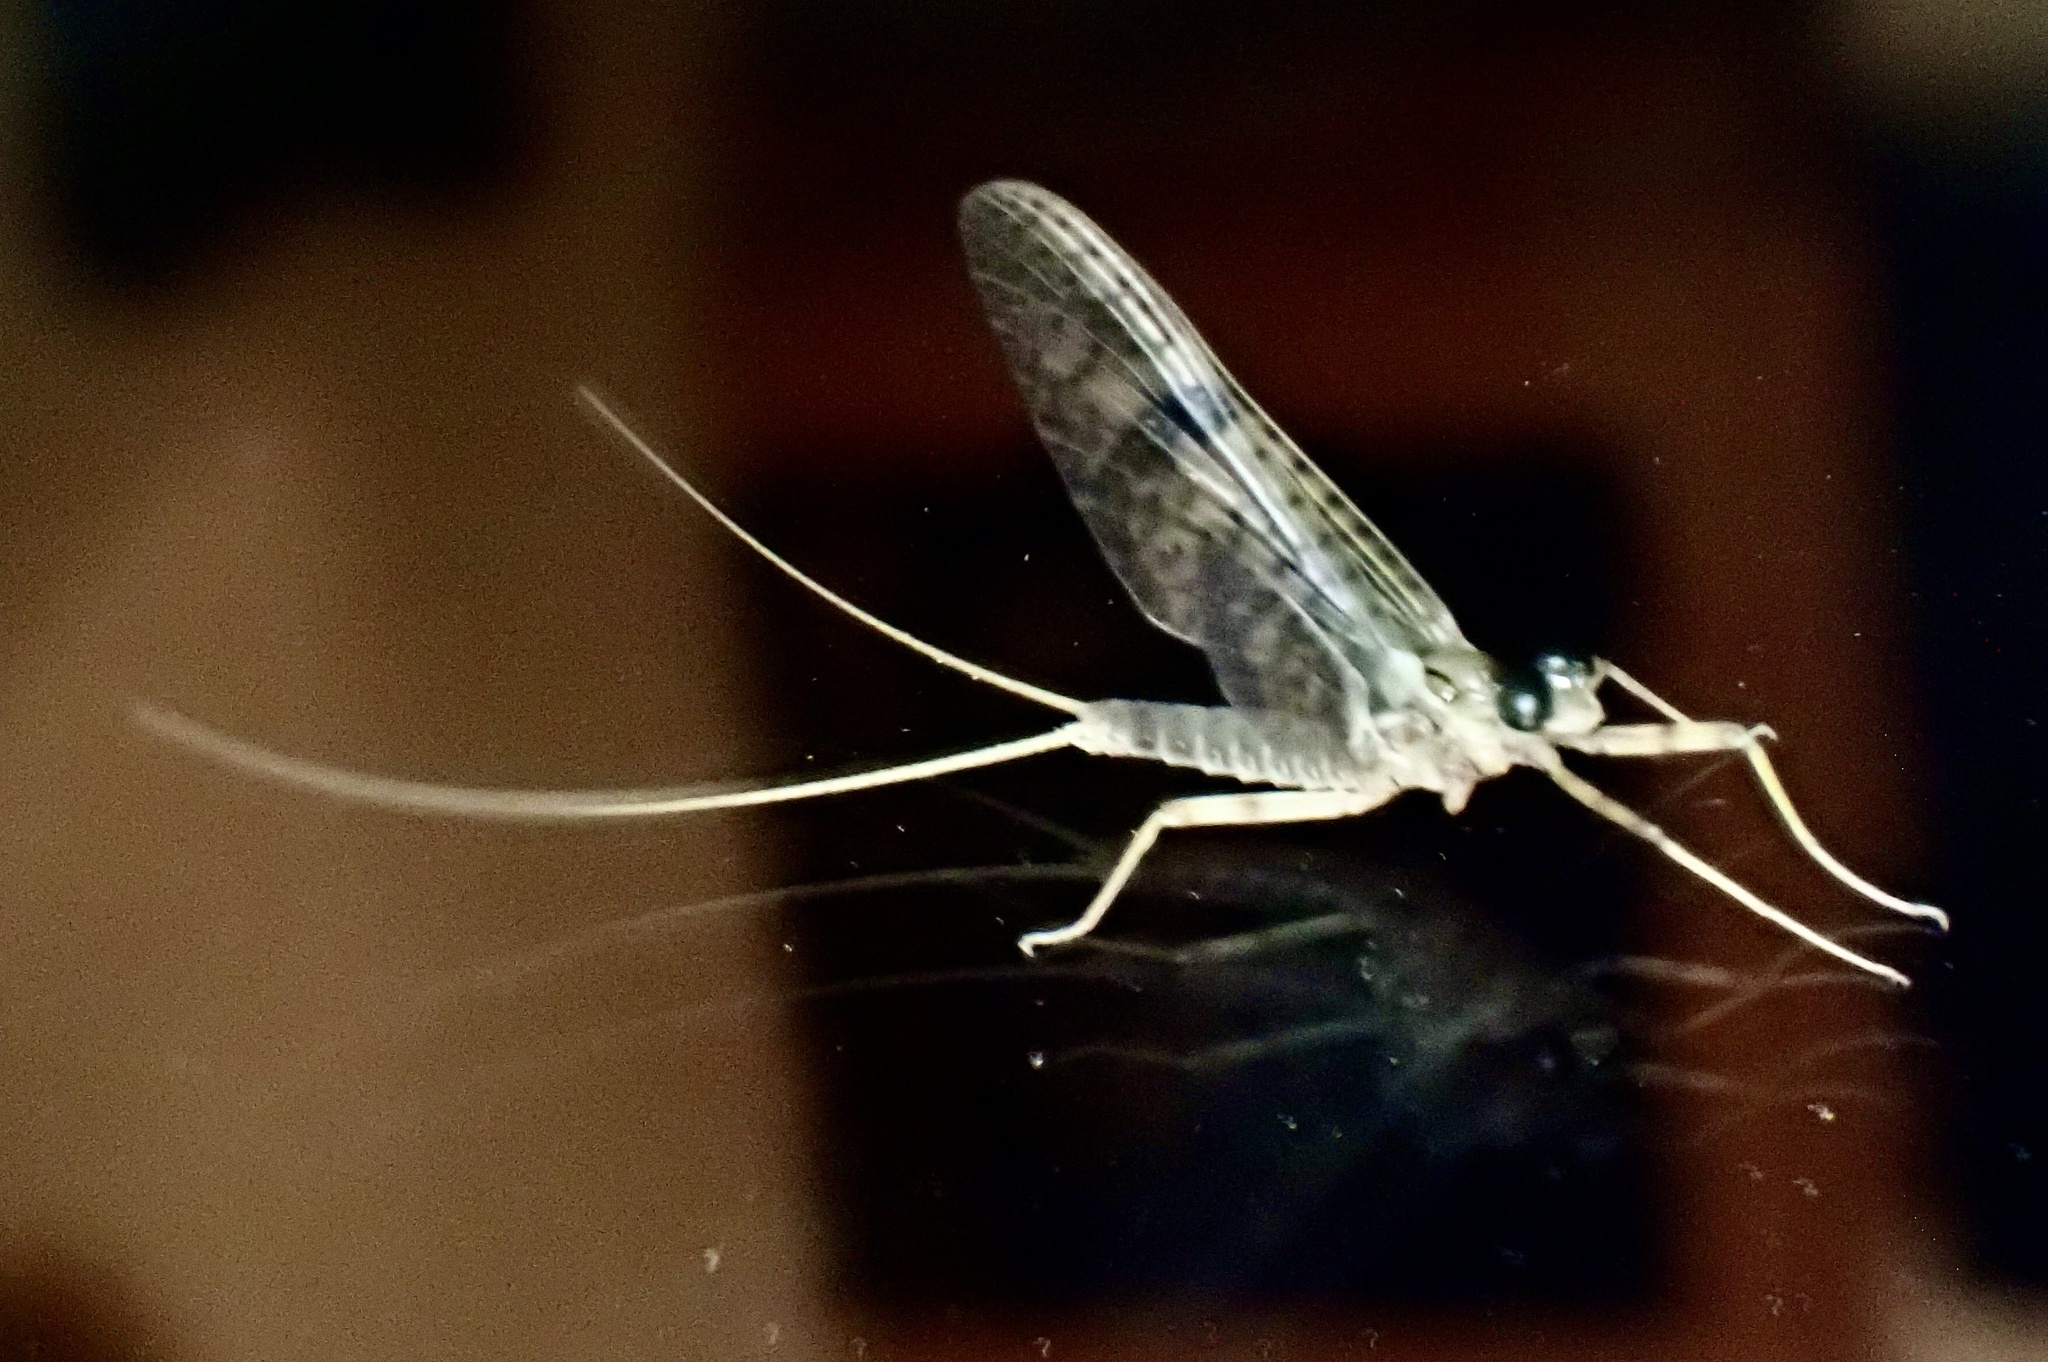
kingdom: Animalia
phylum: Arthropoda
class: Insecta
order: Ephemeroptera
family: Heptageniidae
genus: Stenonema
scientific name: Stenonema femoratum
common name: Dark cahill
